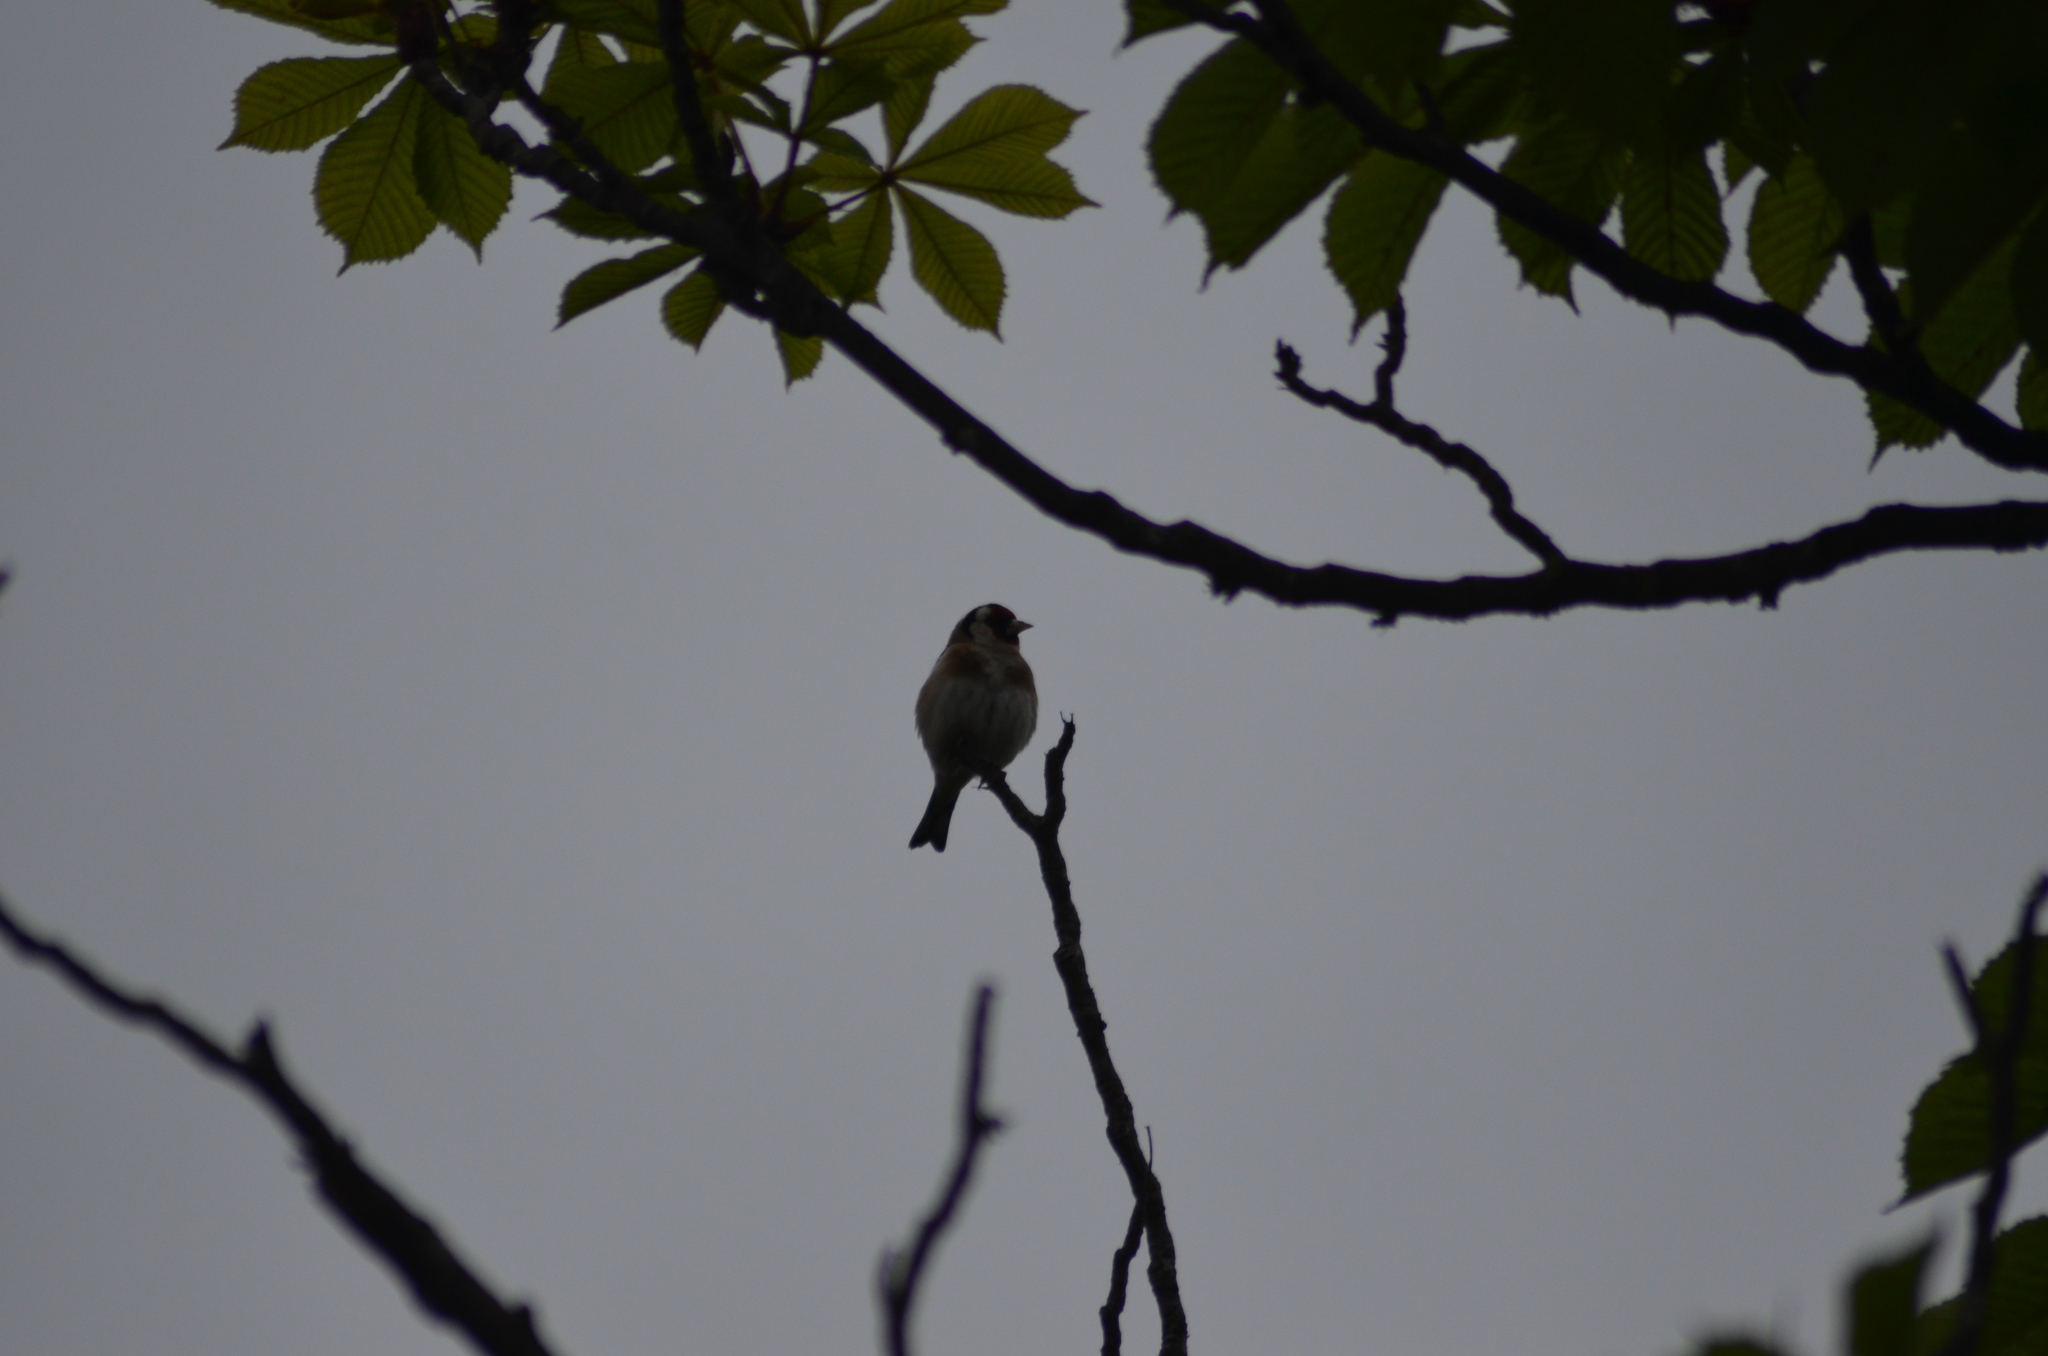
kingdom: Animalia
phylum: Chordata
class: Aves
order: Passeriformes
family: Fringillidae
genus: Carduelis
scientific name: Carduelis carduelis
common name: European goldfinch
